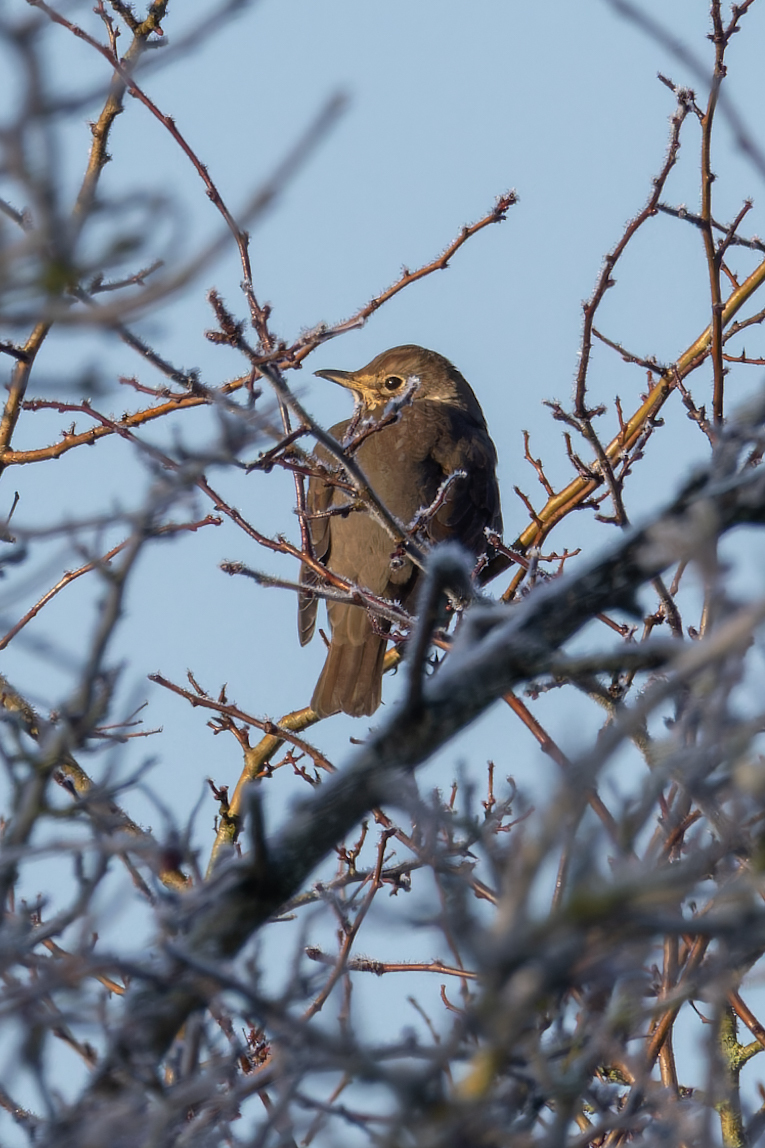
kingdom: Animalia
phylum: Chordata
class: Aves
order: Passeriformes
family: Turdidae
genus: Turdus
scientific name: Turdus philomelos
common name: Song thrush
